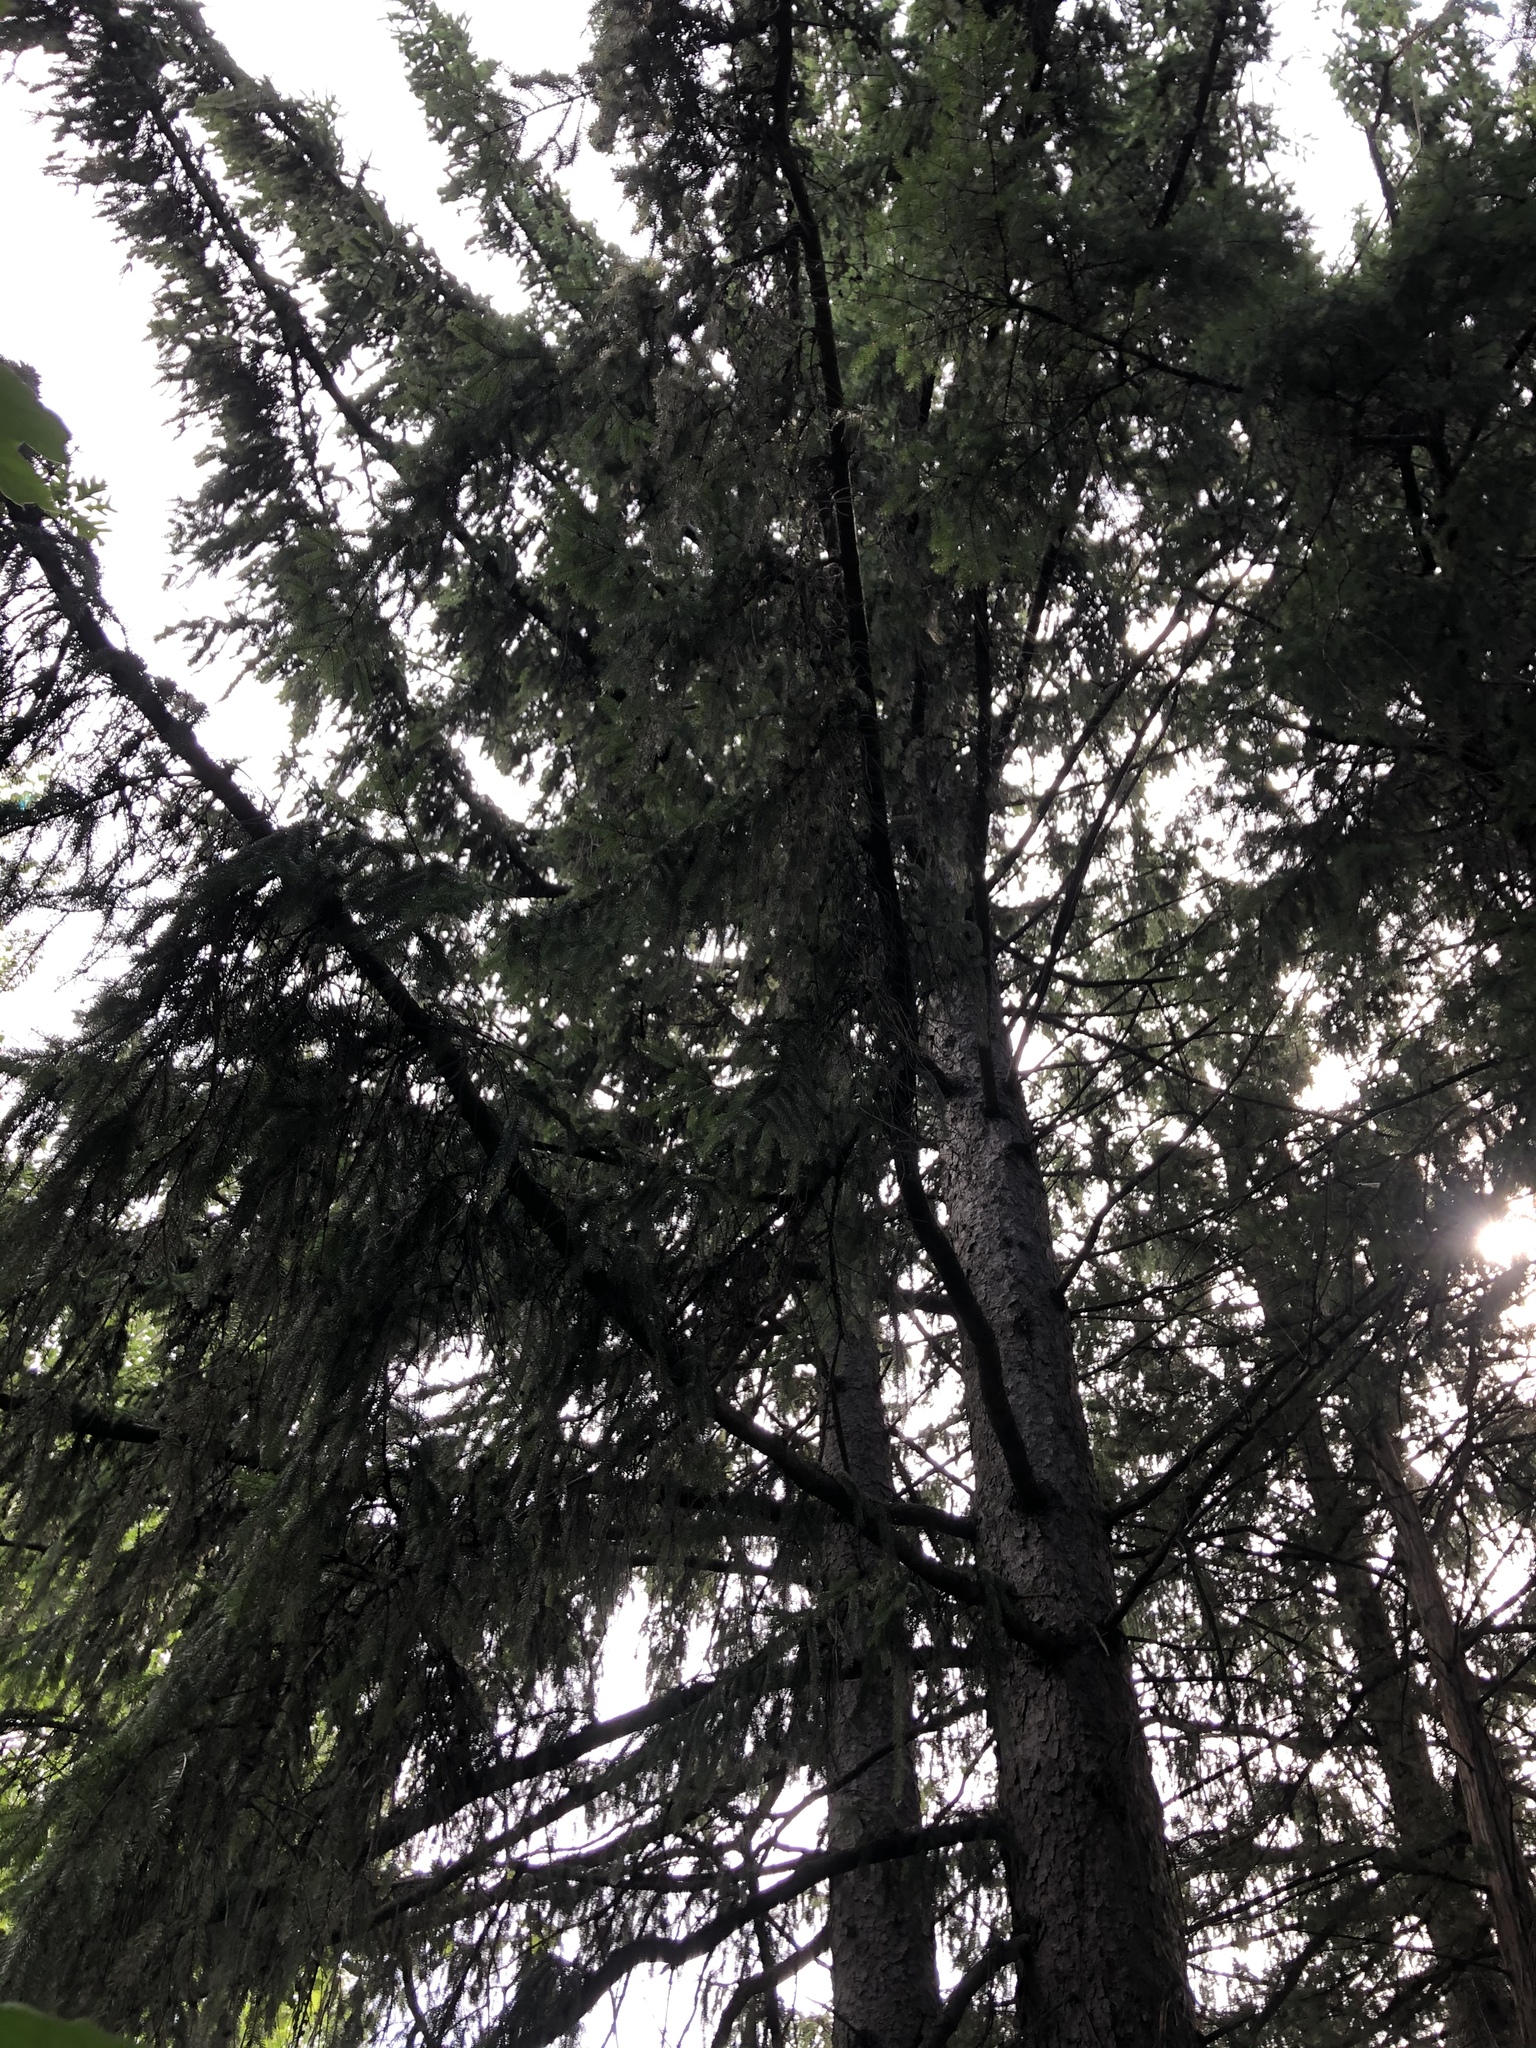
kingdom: Plantae
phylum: Tracheophyta
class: Pinopsida
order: Pinales
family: Pinaceae
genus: Picea
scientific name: Picea abies
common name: Norway spruce
